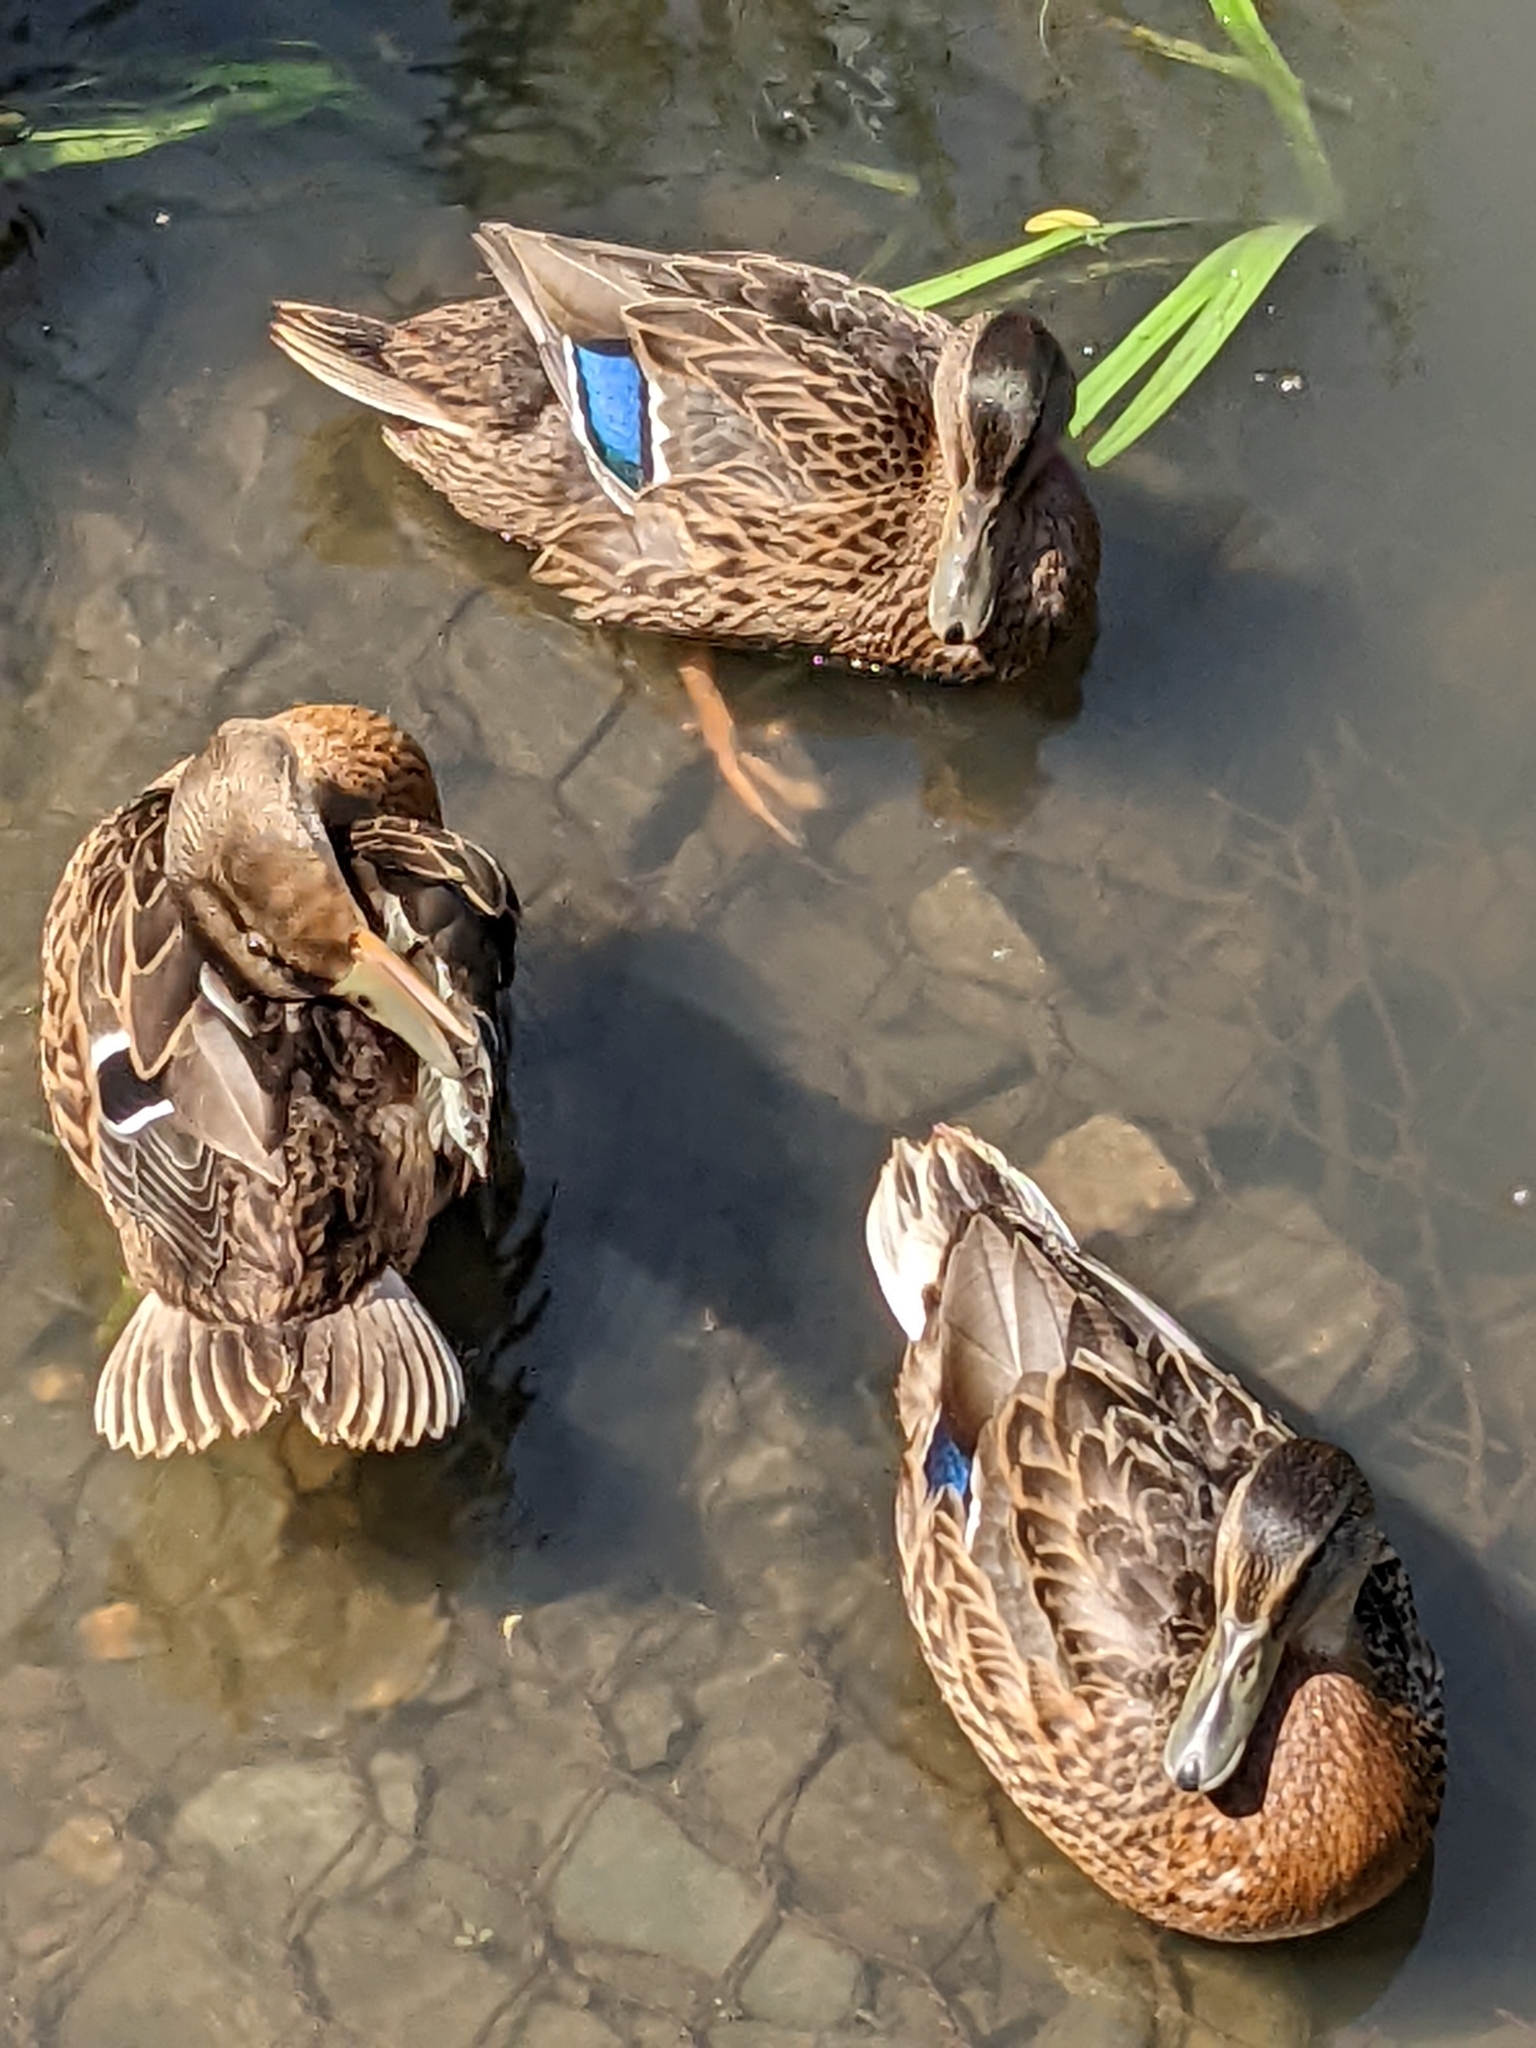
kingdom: Animalia
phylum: Chordata
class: Aves
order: Anseriformes
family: Anatidae
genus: Anas
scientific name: Anas platyrhynchos
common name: Mallard
